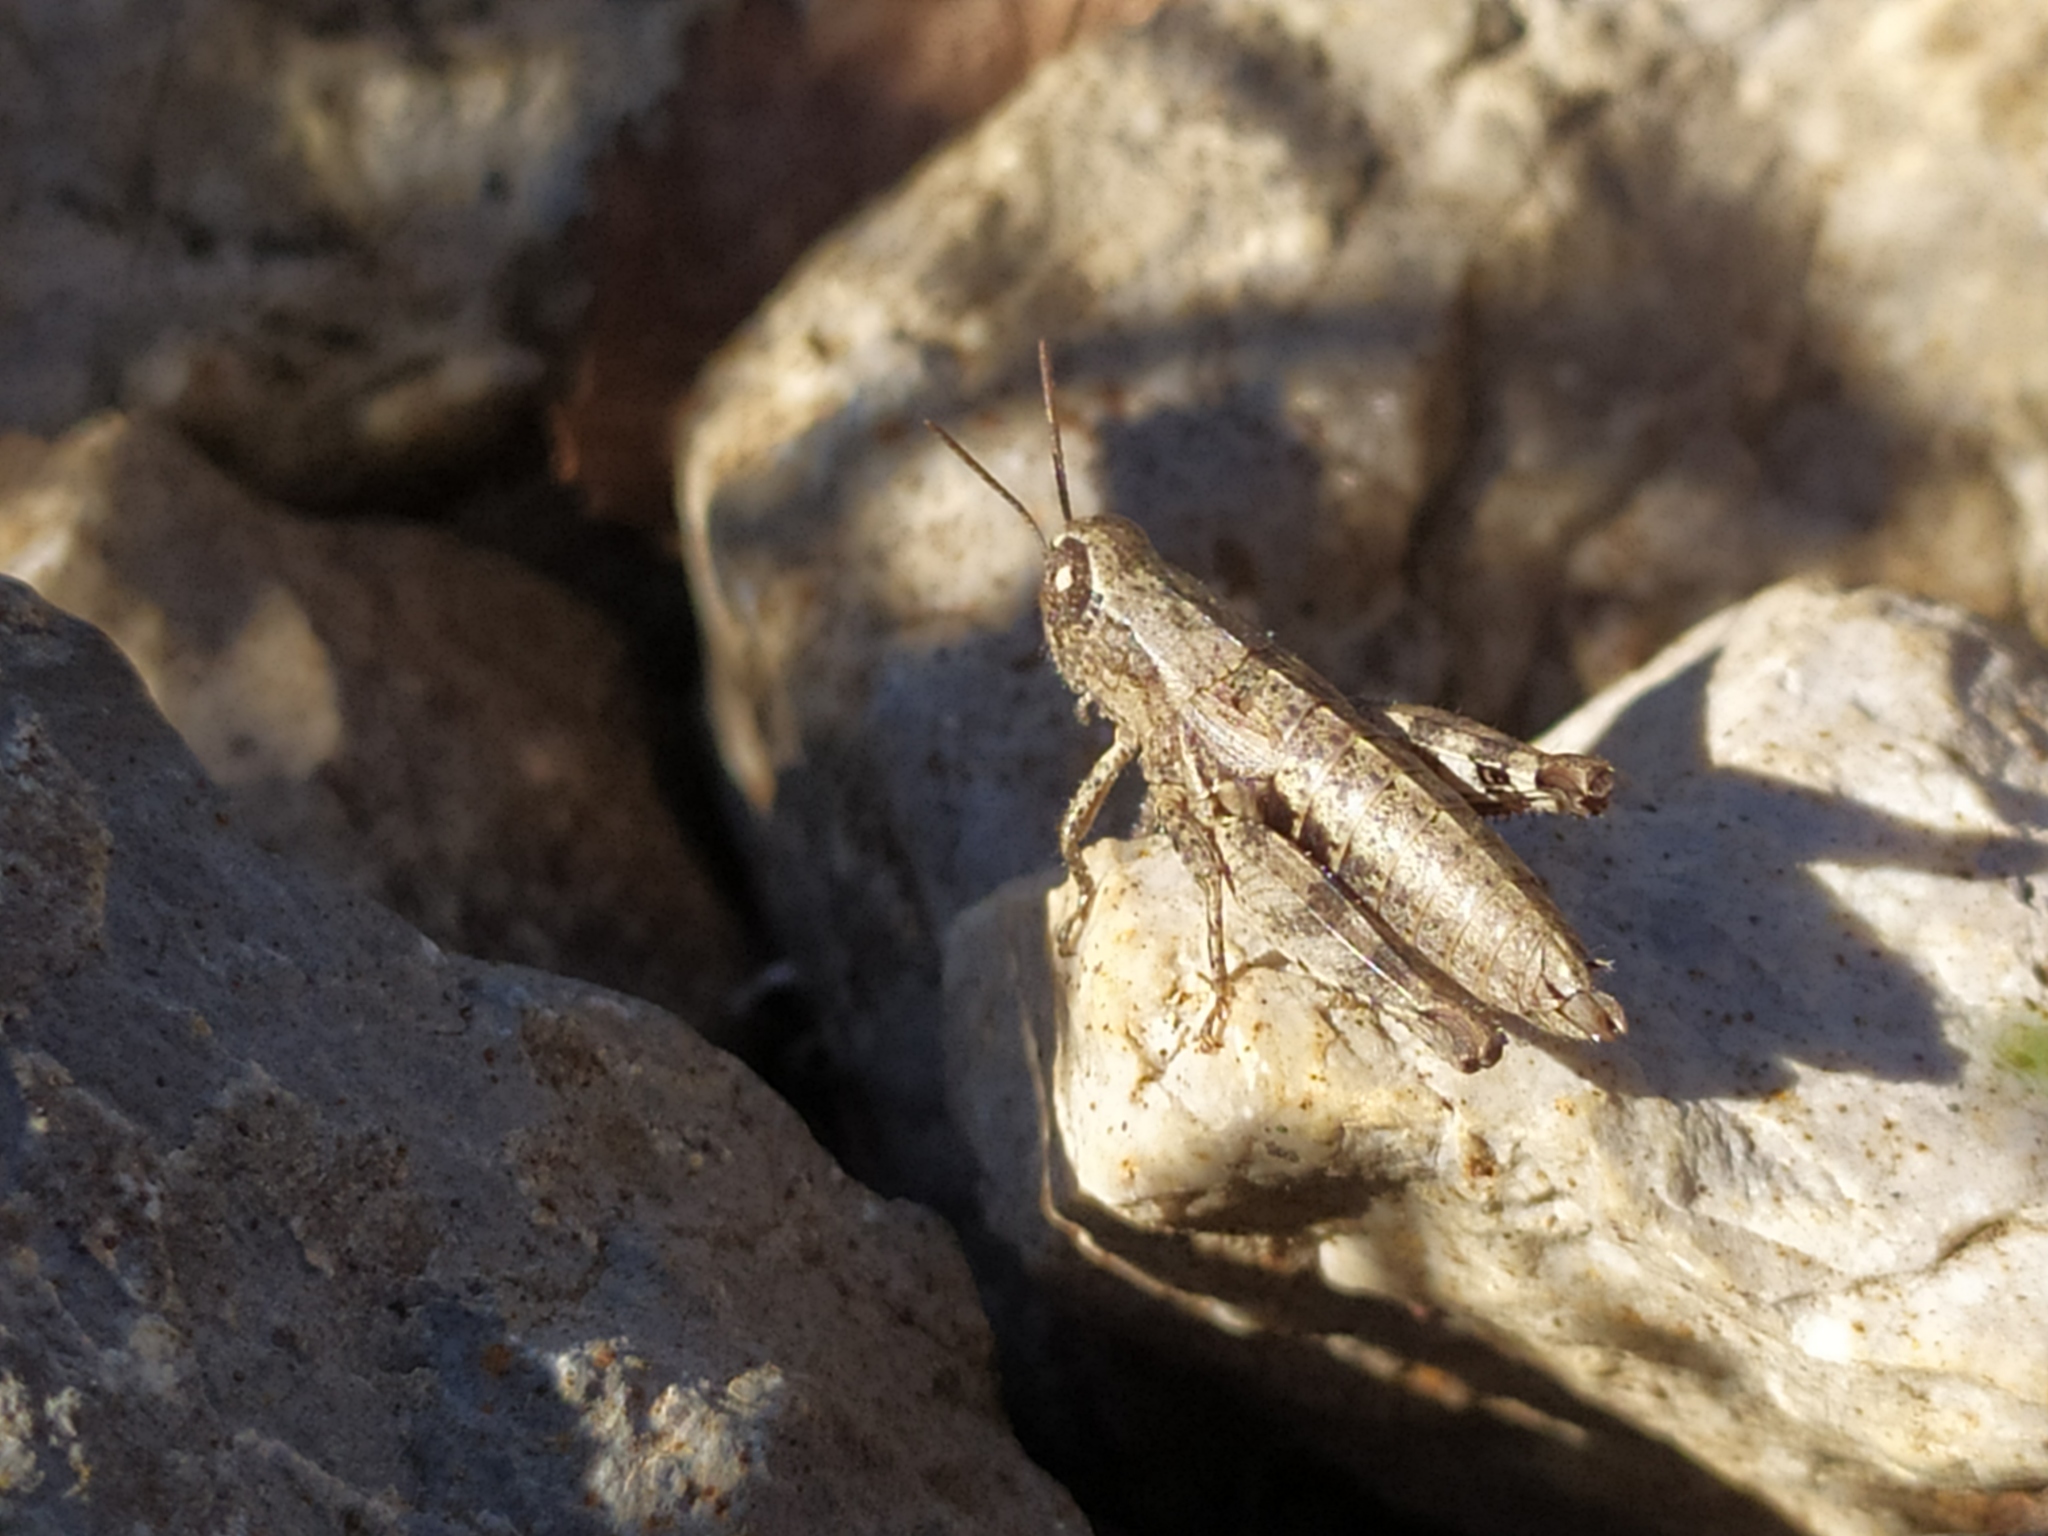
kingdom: Animalia
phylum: Arthropoda
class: Insecta
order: Orthoptera
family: Acrididae
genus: Pezotettix
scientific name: Pezotettix giornae
